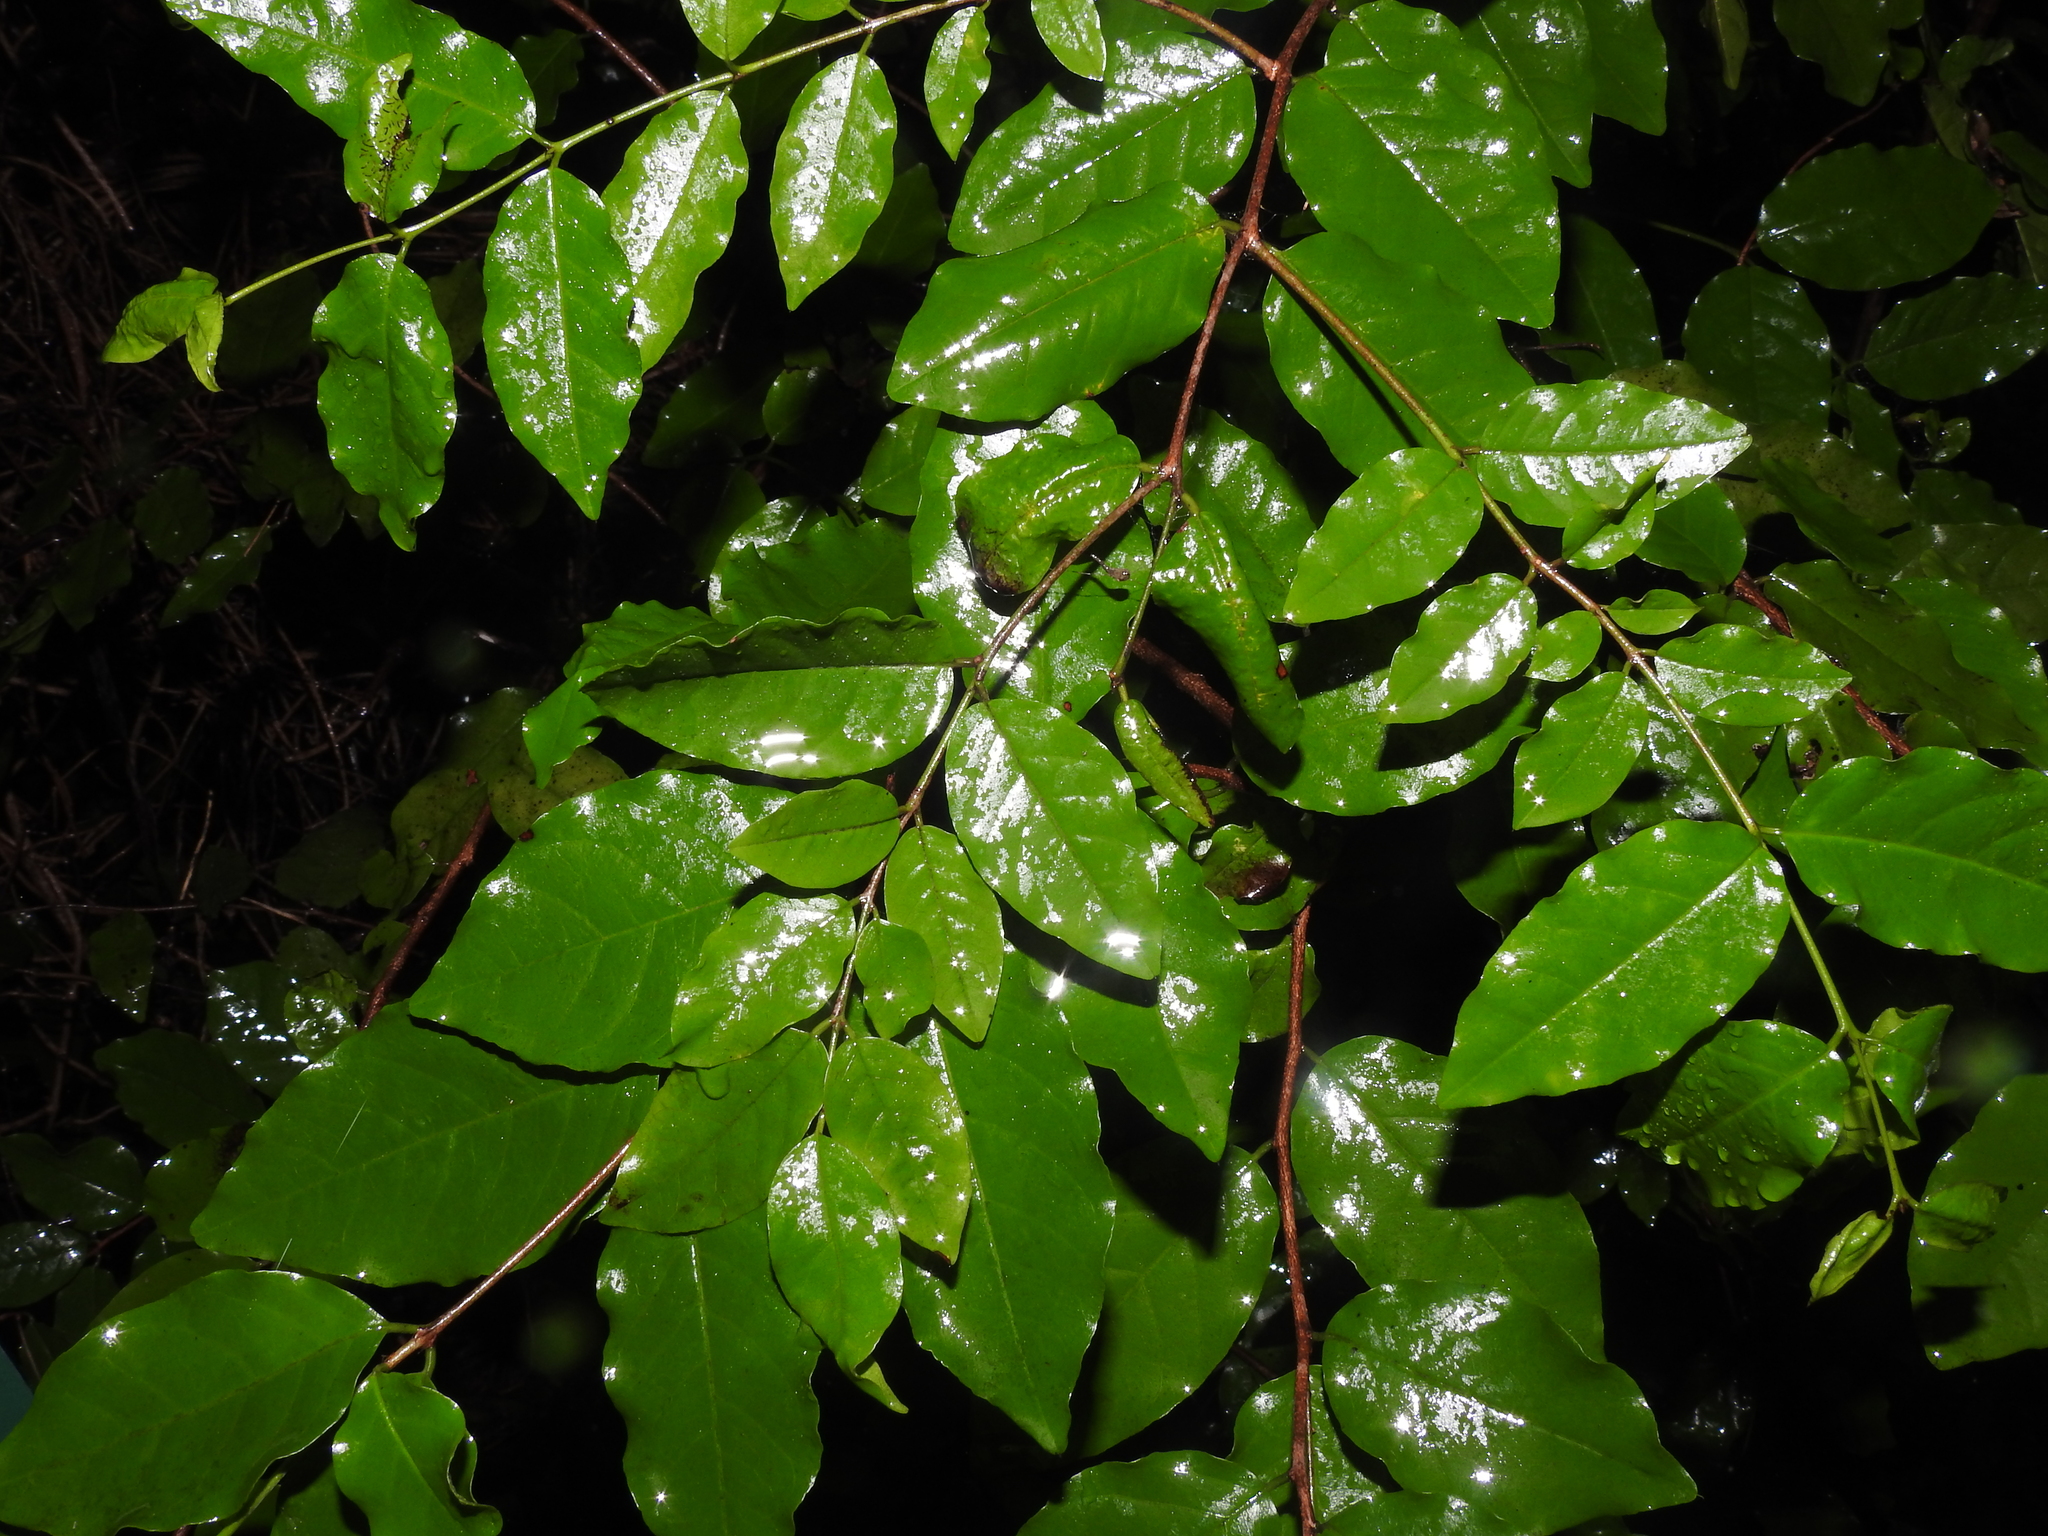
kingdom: Plantae
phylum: Tracheophyta
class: Magnoliopsida
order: Rosales
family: Rhamnaceae
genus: Krugiodendron
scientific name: Krugiodendron ferreum
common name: Iron wood
